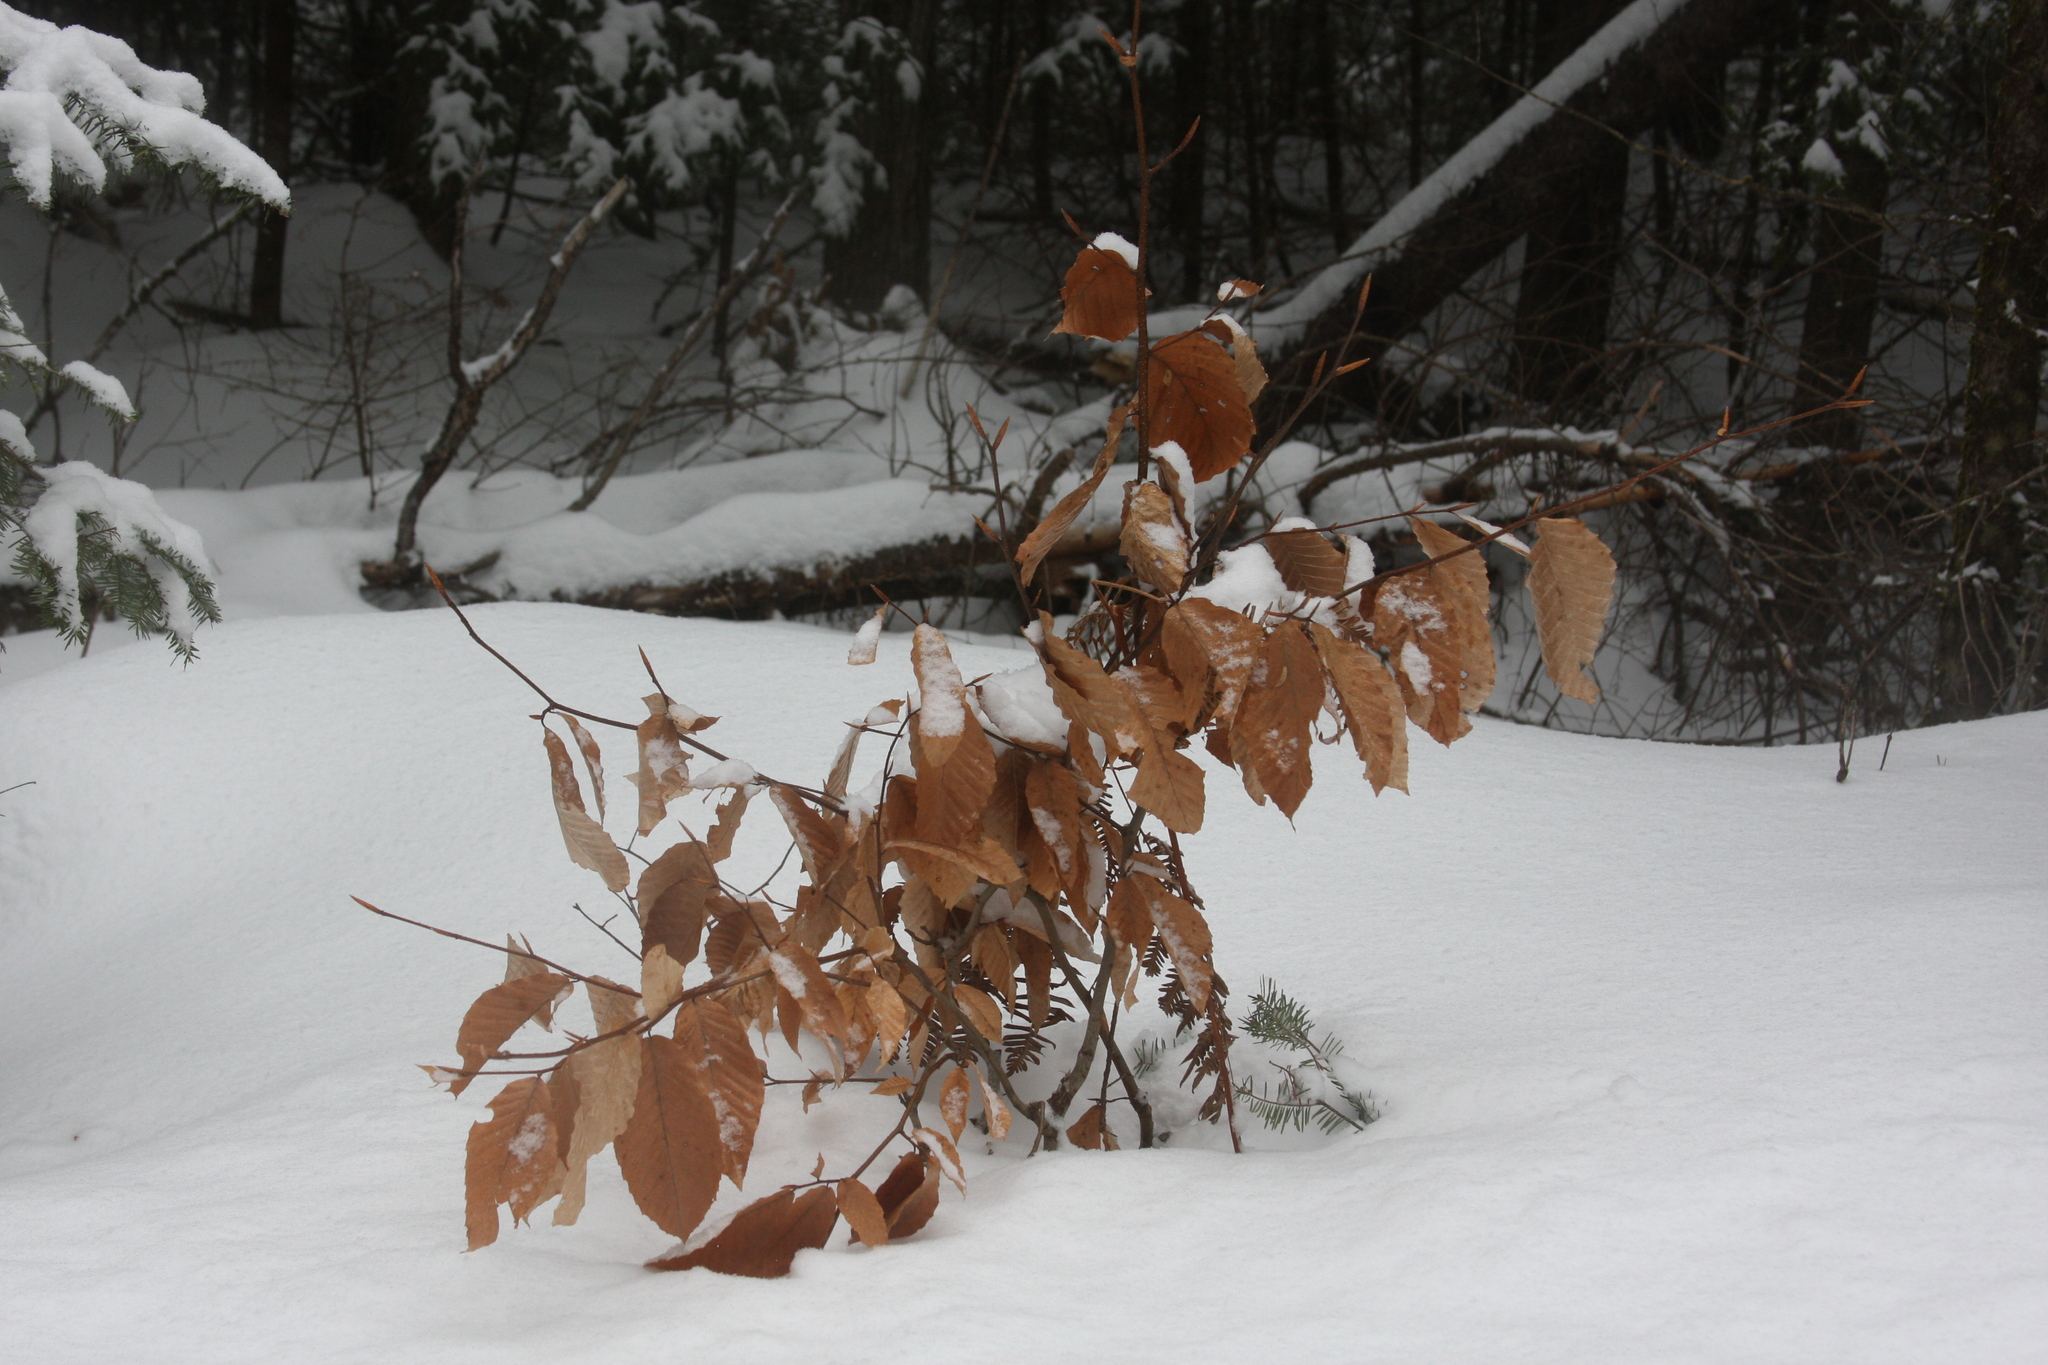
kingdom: Plantae
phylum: Tracheophyta
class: Magnoliopsida
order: Fagales
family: Fagaceae
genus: Fagus
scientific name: Fagus grandifolia
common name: American beech
